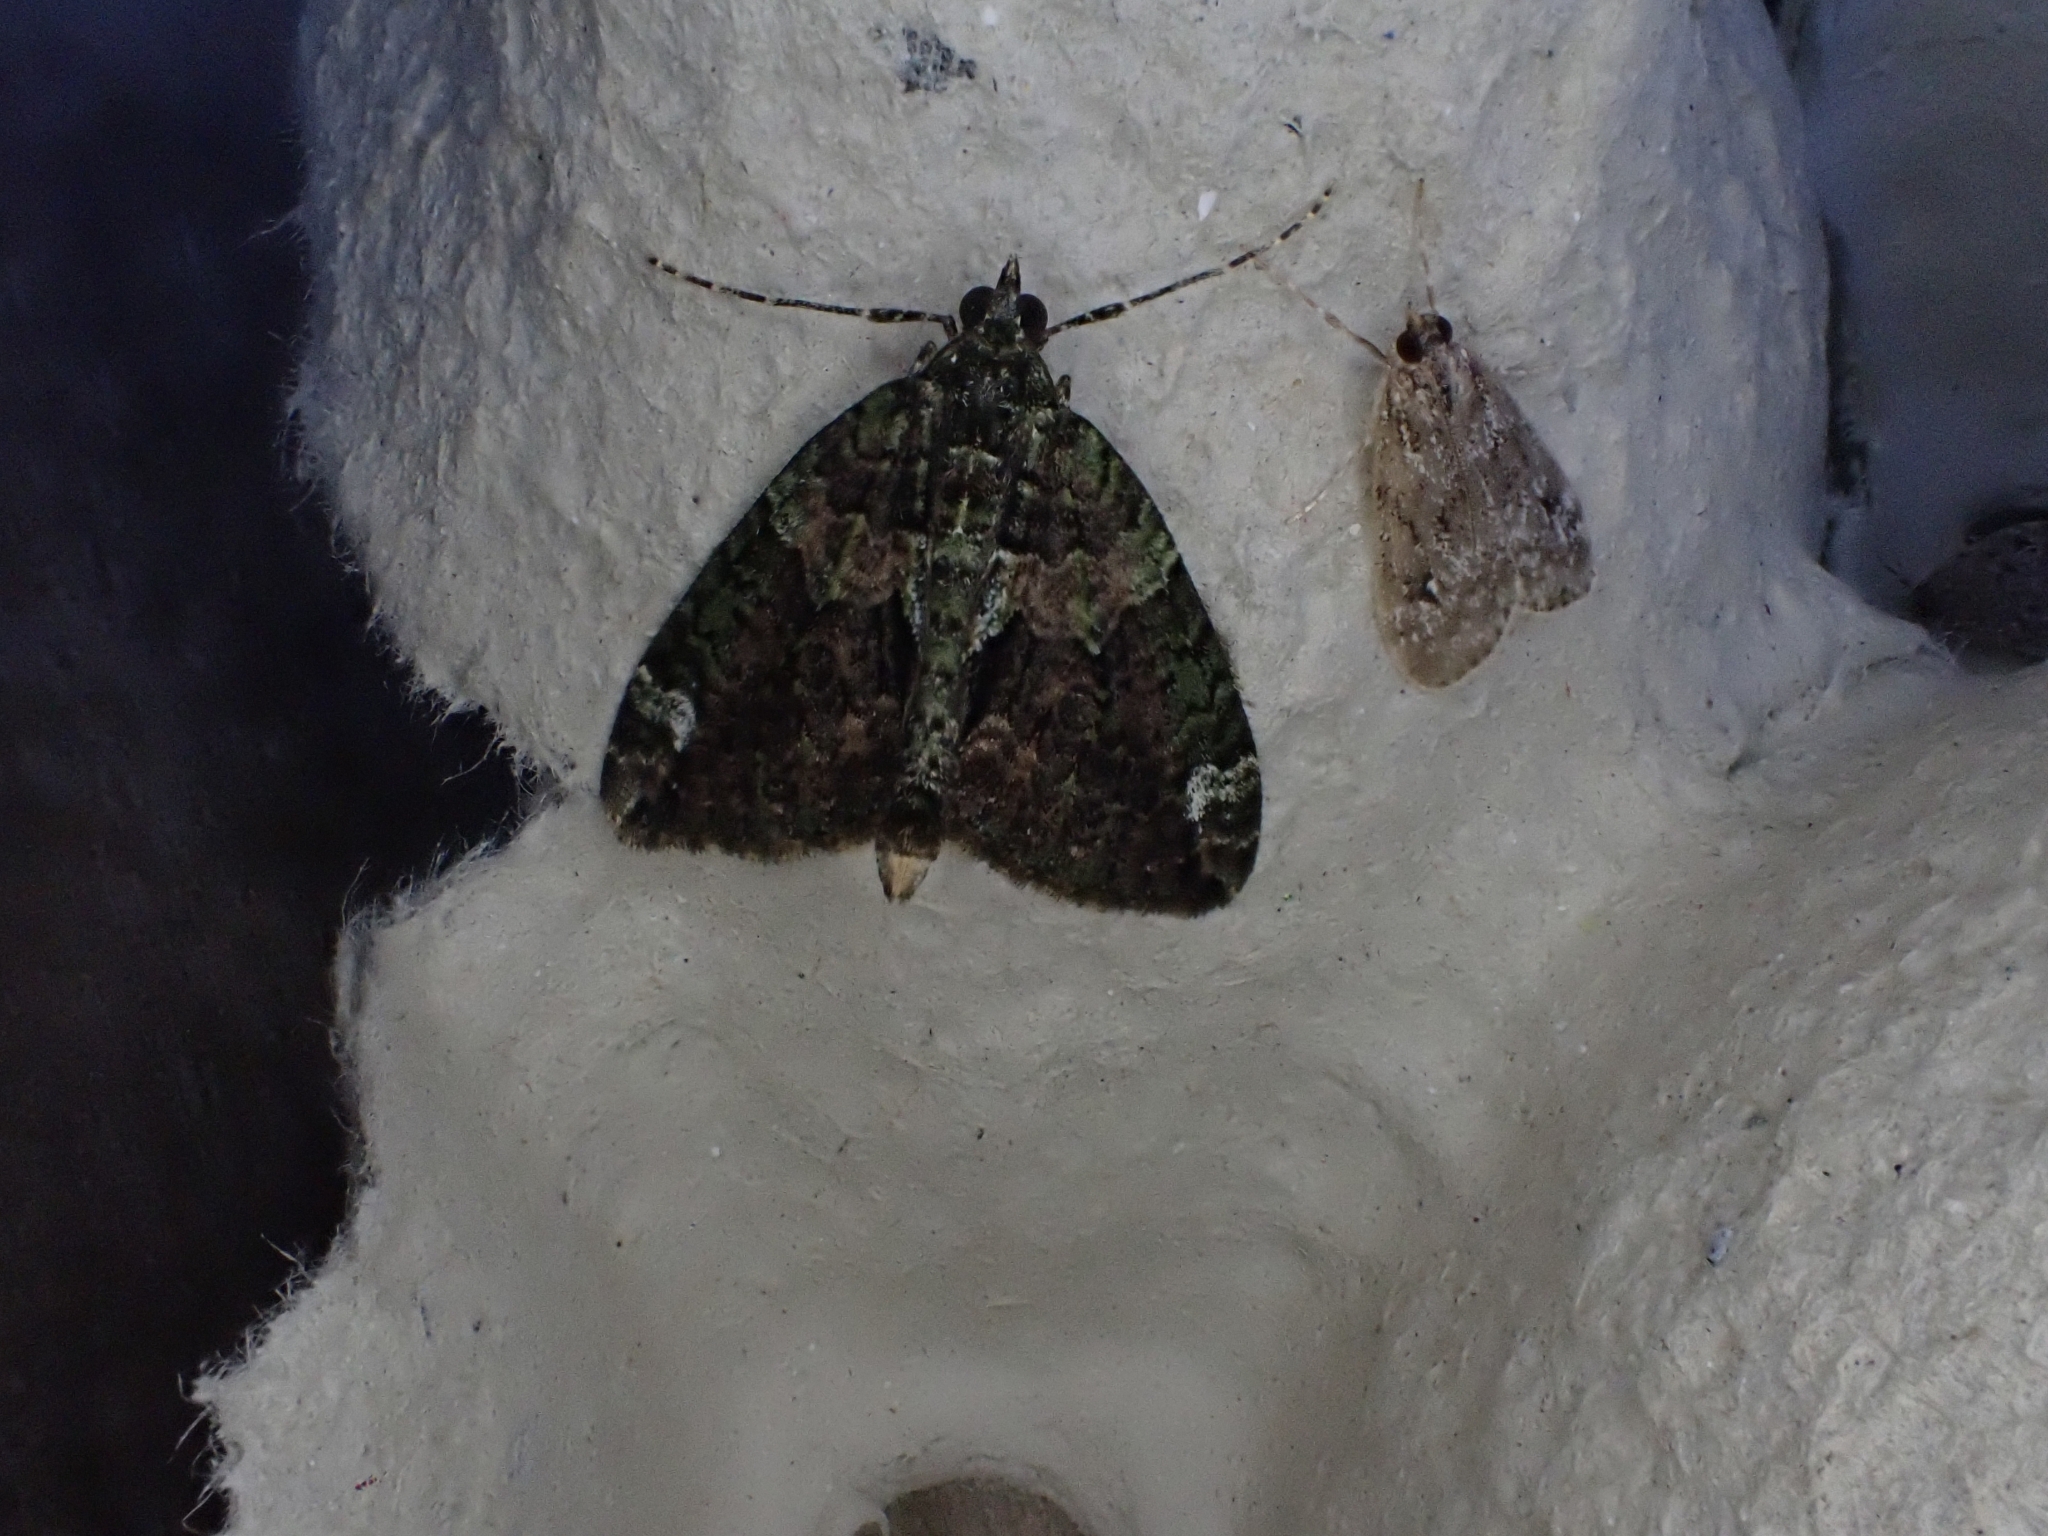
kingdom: Animalia
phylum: Arthropoda
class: Insecta
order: Lepidoptera
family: Geometridae
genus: Chloroclysta
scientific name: Chloroclysta siterata
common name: Red-green carpet
